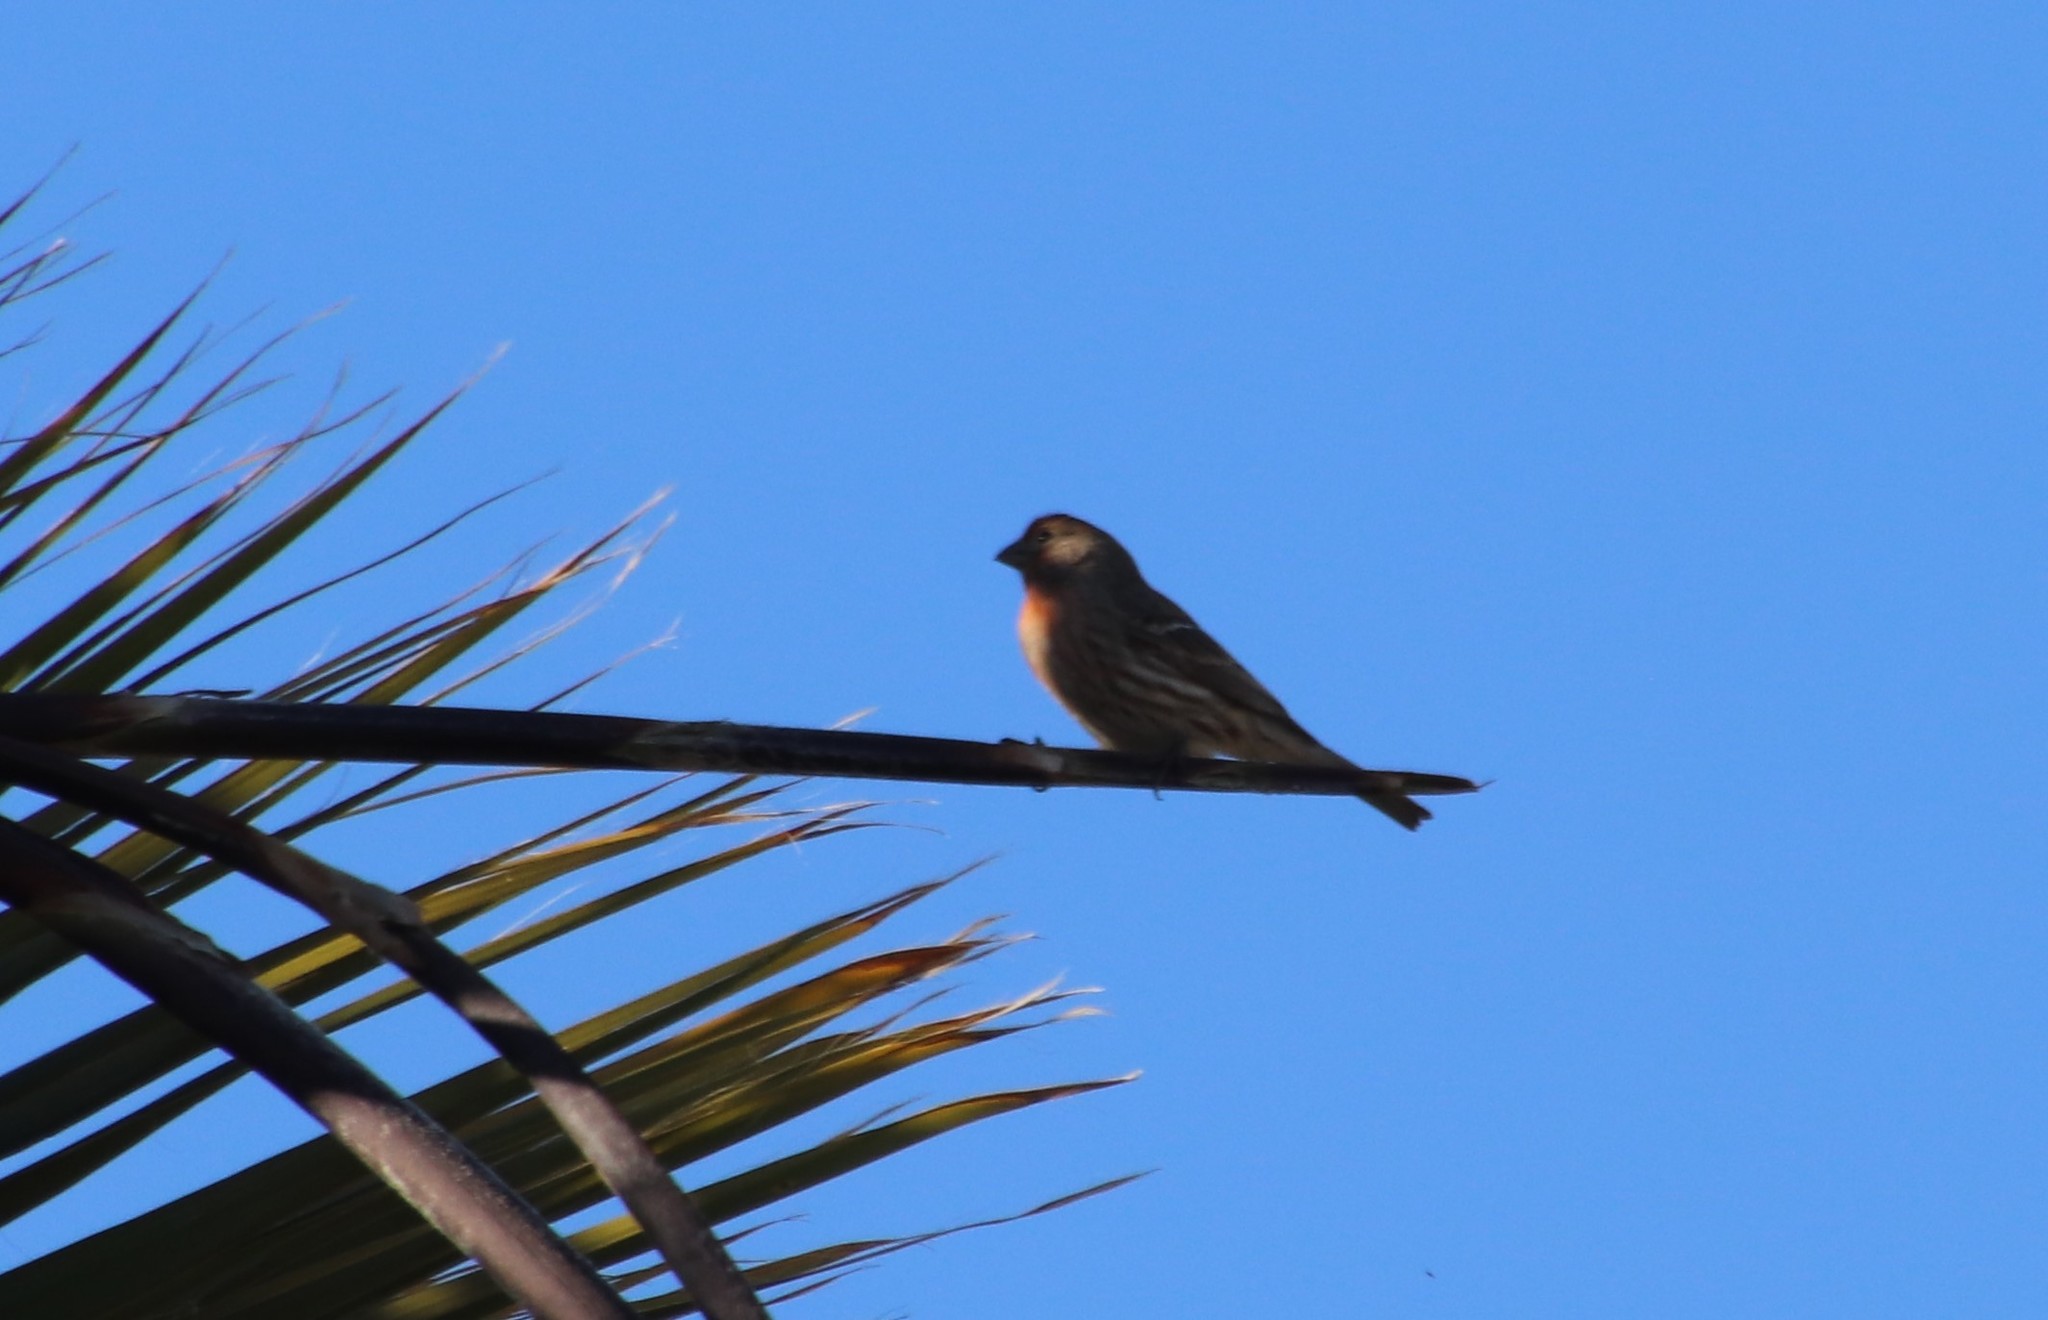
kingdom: Animalia
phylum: Chordata
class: Aves
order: Passeriformes
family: Fringillidae
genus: Haemorhous
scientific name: Haemorhous mexicanus
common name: House finch
